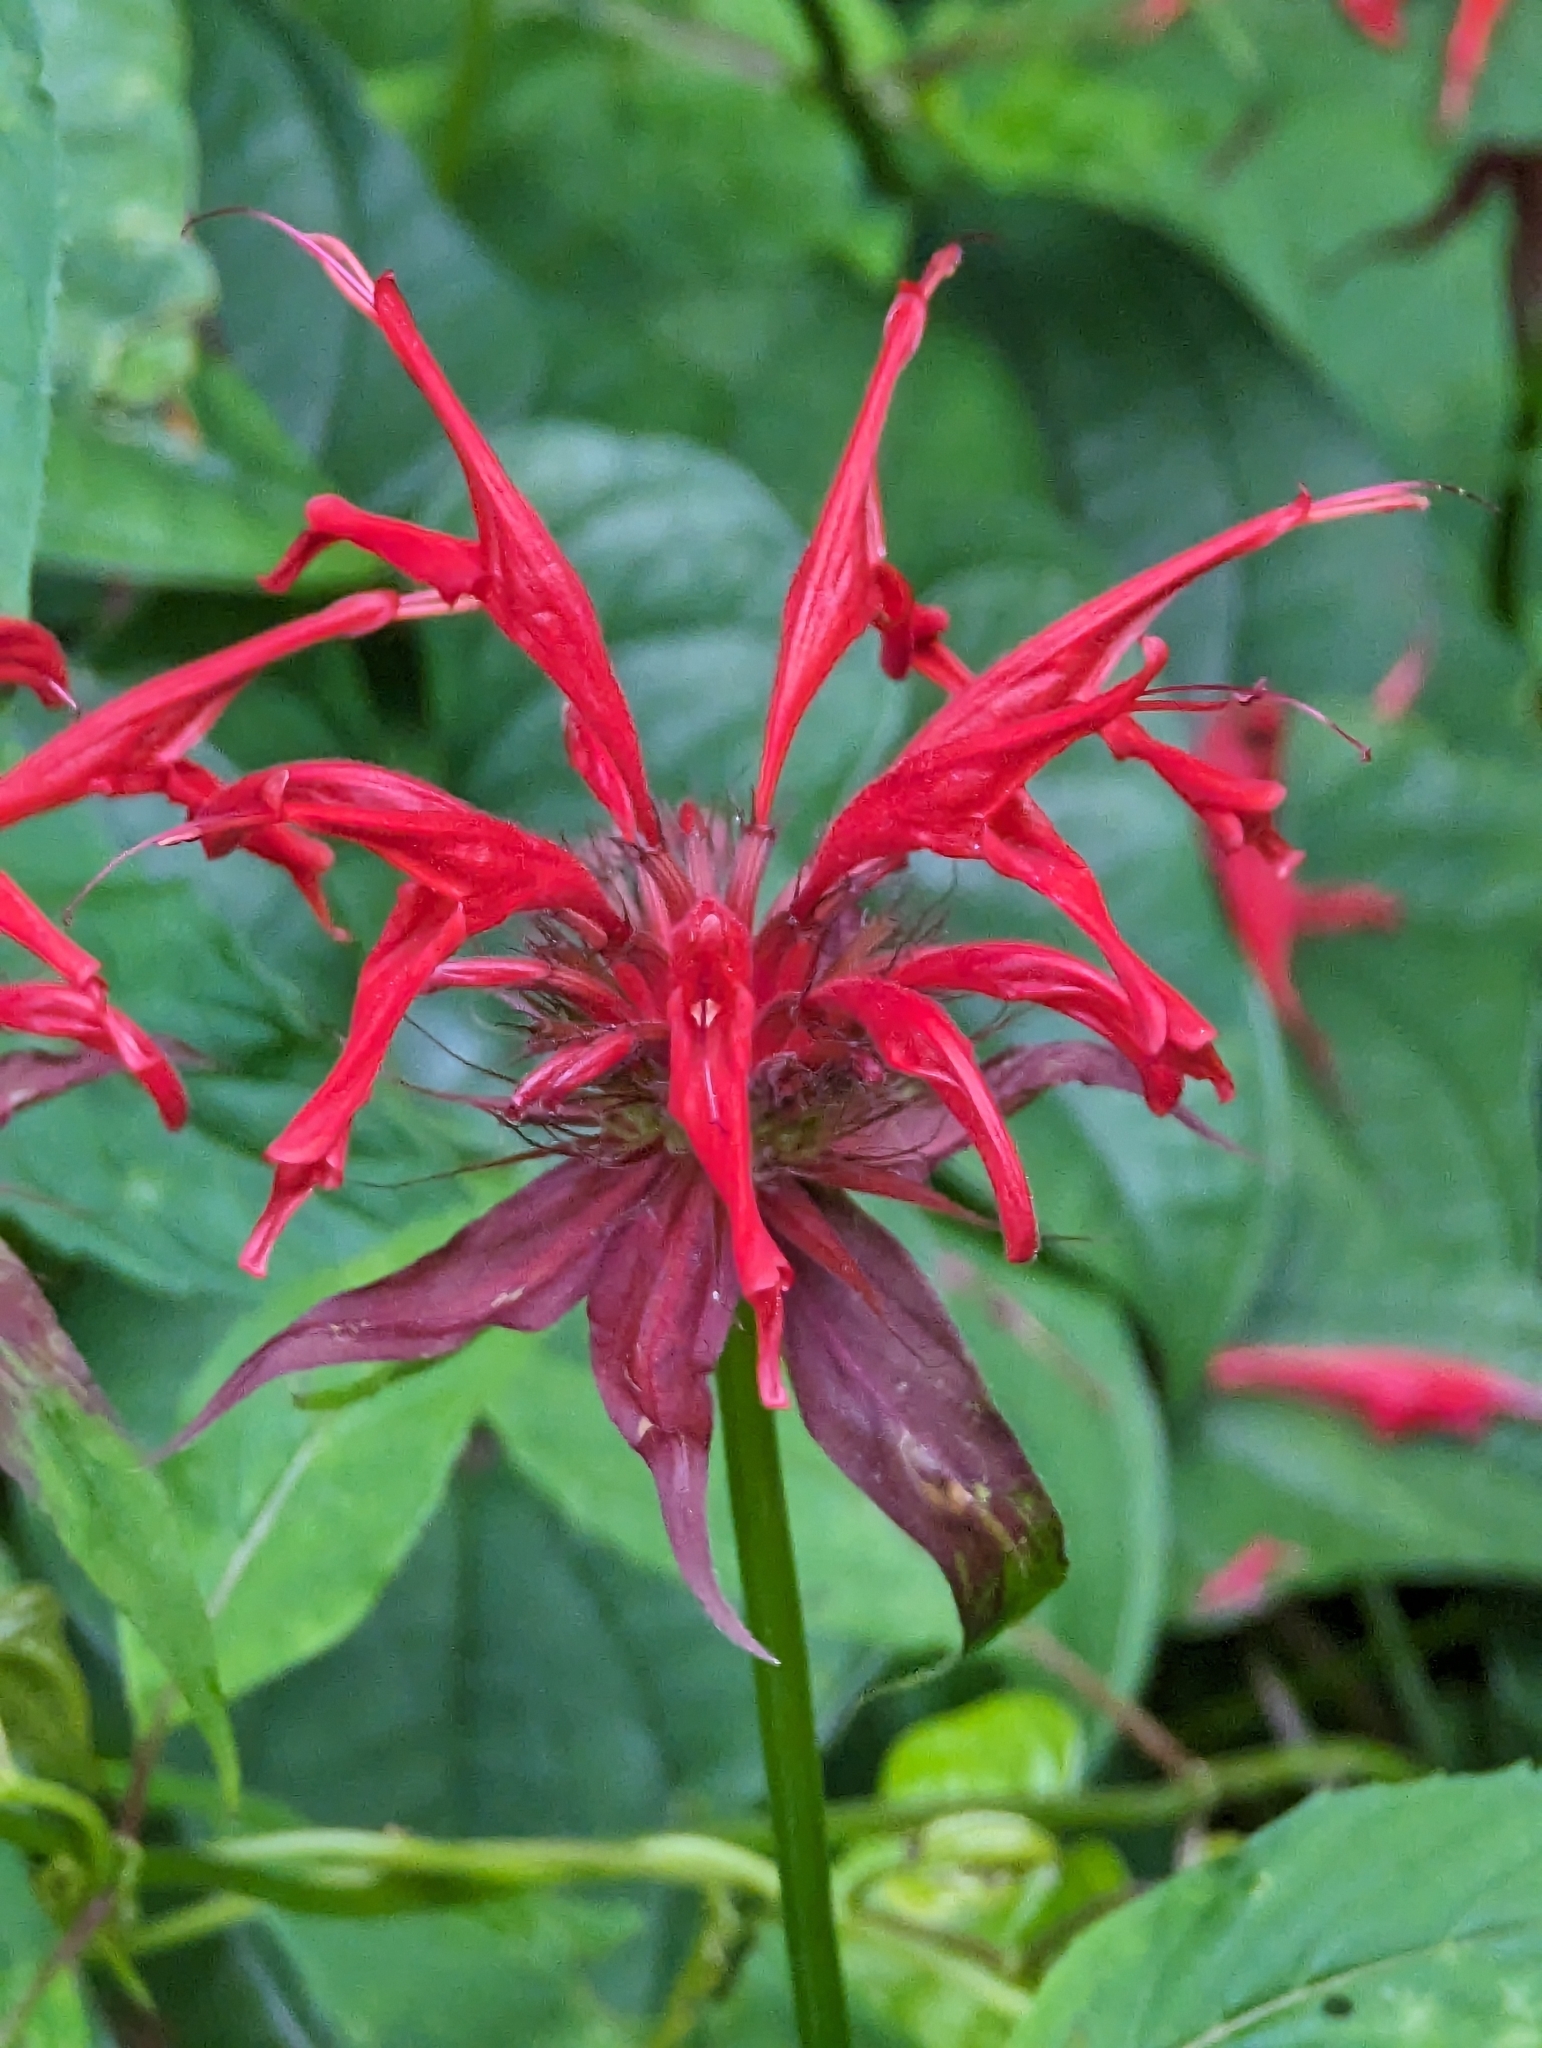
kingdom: Plantae
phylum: Tracheophyta
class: Magnoliopsida
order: Lamiales
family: Lamiaceae
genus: Monarda
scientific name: Monarda didyma
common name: Beebalm
